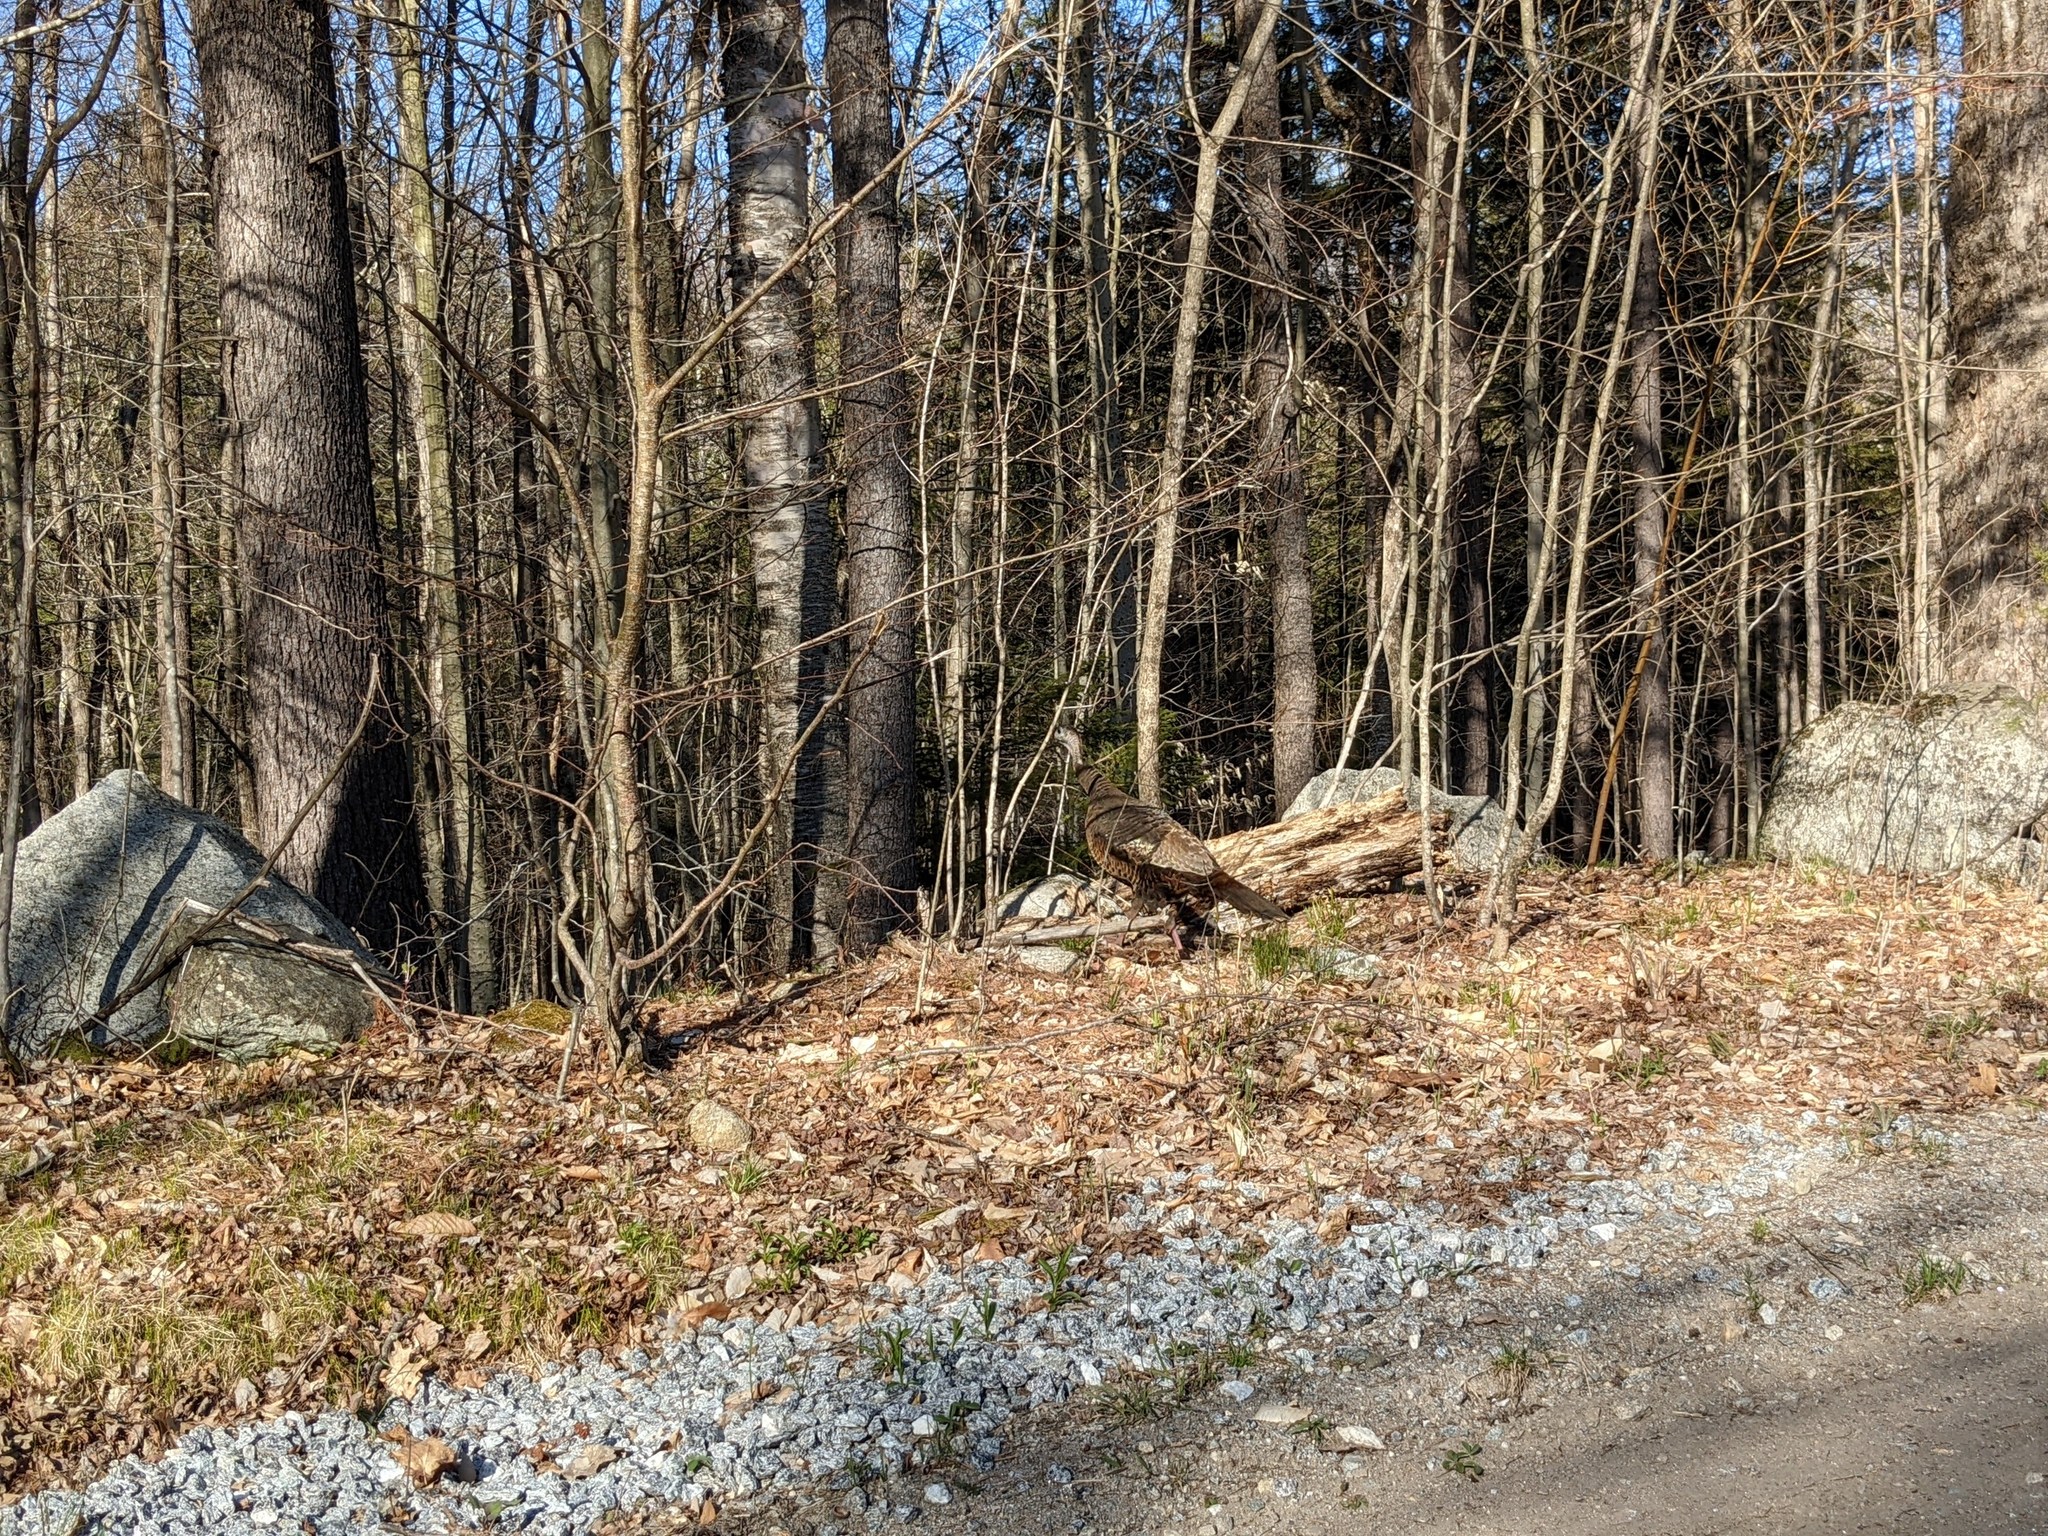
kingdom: Animalia
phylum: Chordata
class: Aves
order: Galliformes
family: Phasianidae
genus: Meleagris
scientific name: Meleagris gallopavo
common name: Wild turkey
